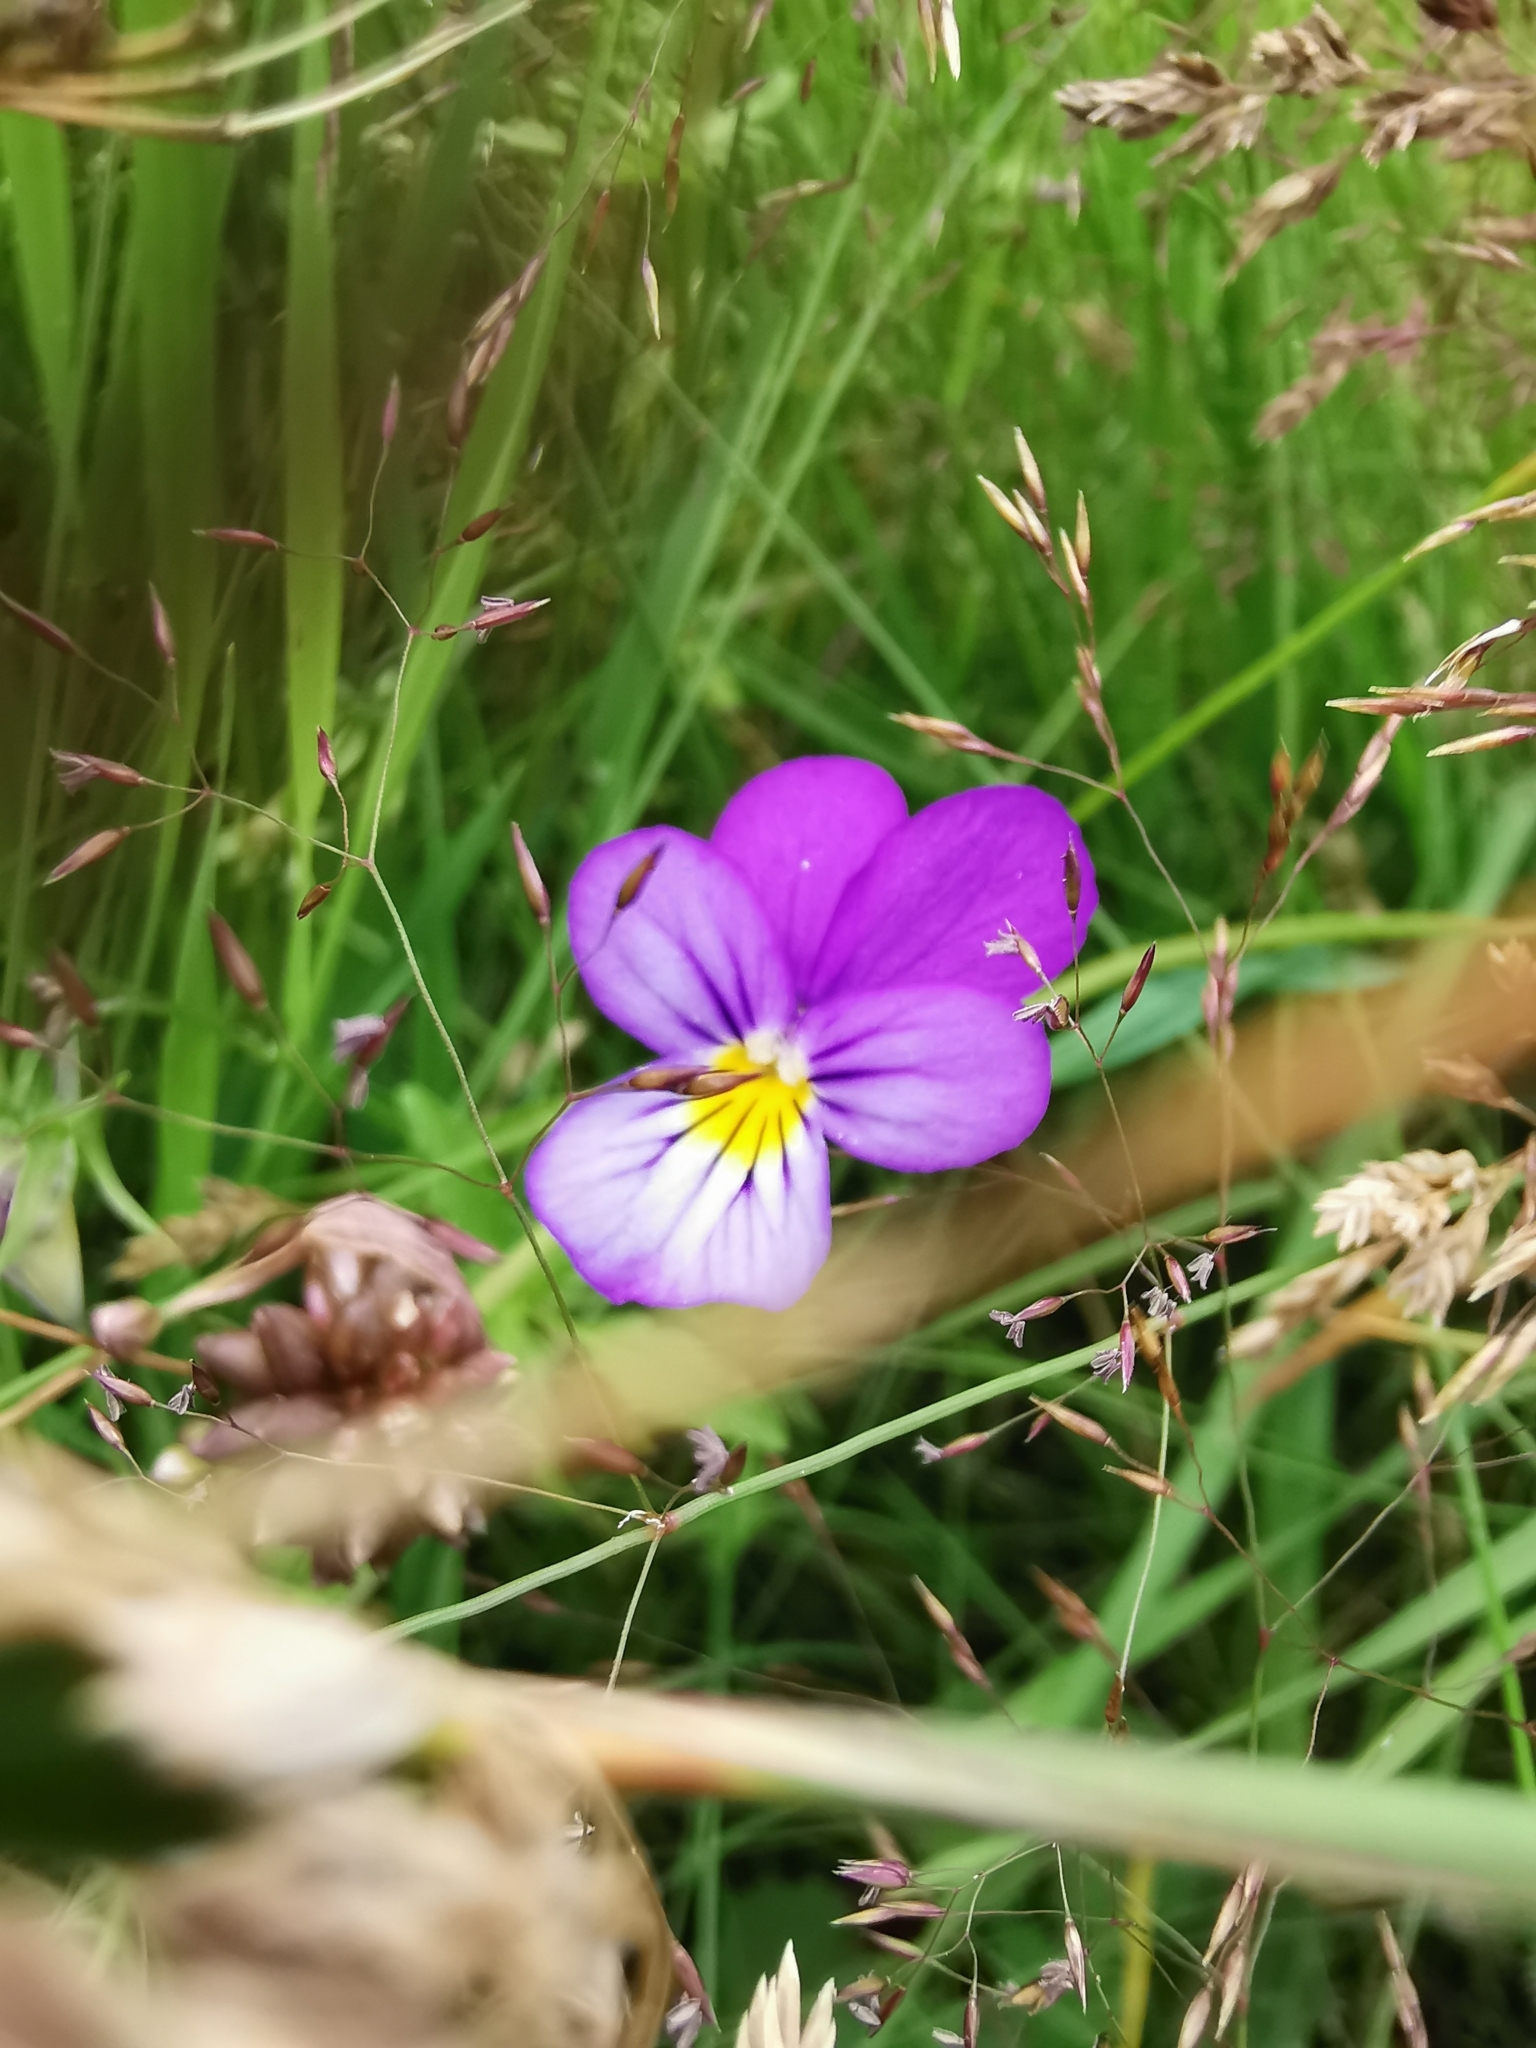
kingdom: Plantae
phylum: Tracheophyta
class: Magnoliopsida
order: Malpighiales
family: Violaceae
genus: Viola
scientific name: Viola tricolor
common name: Pansy
